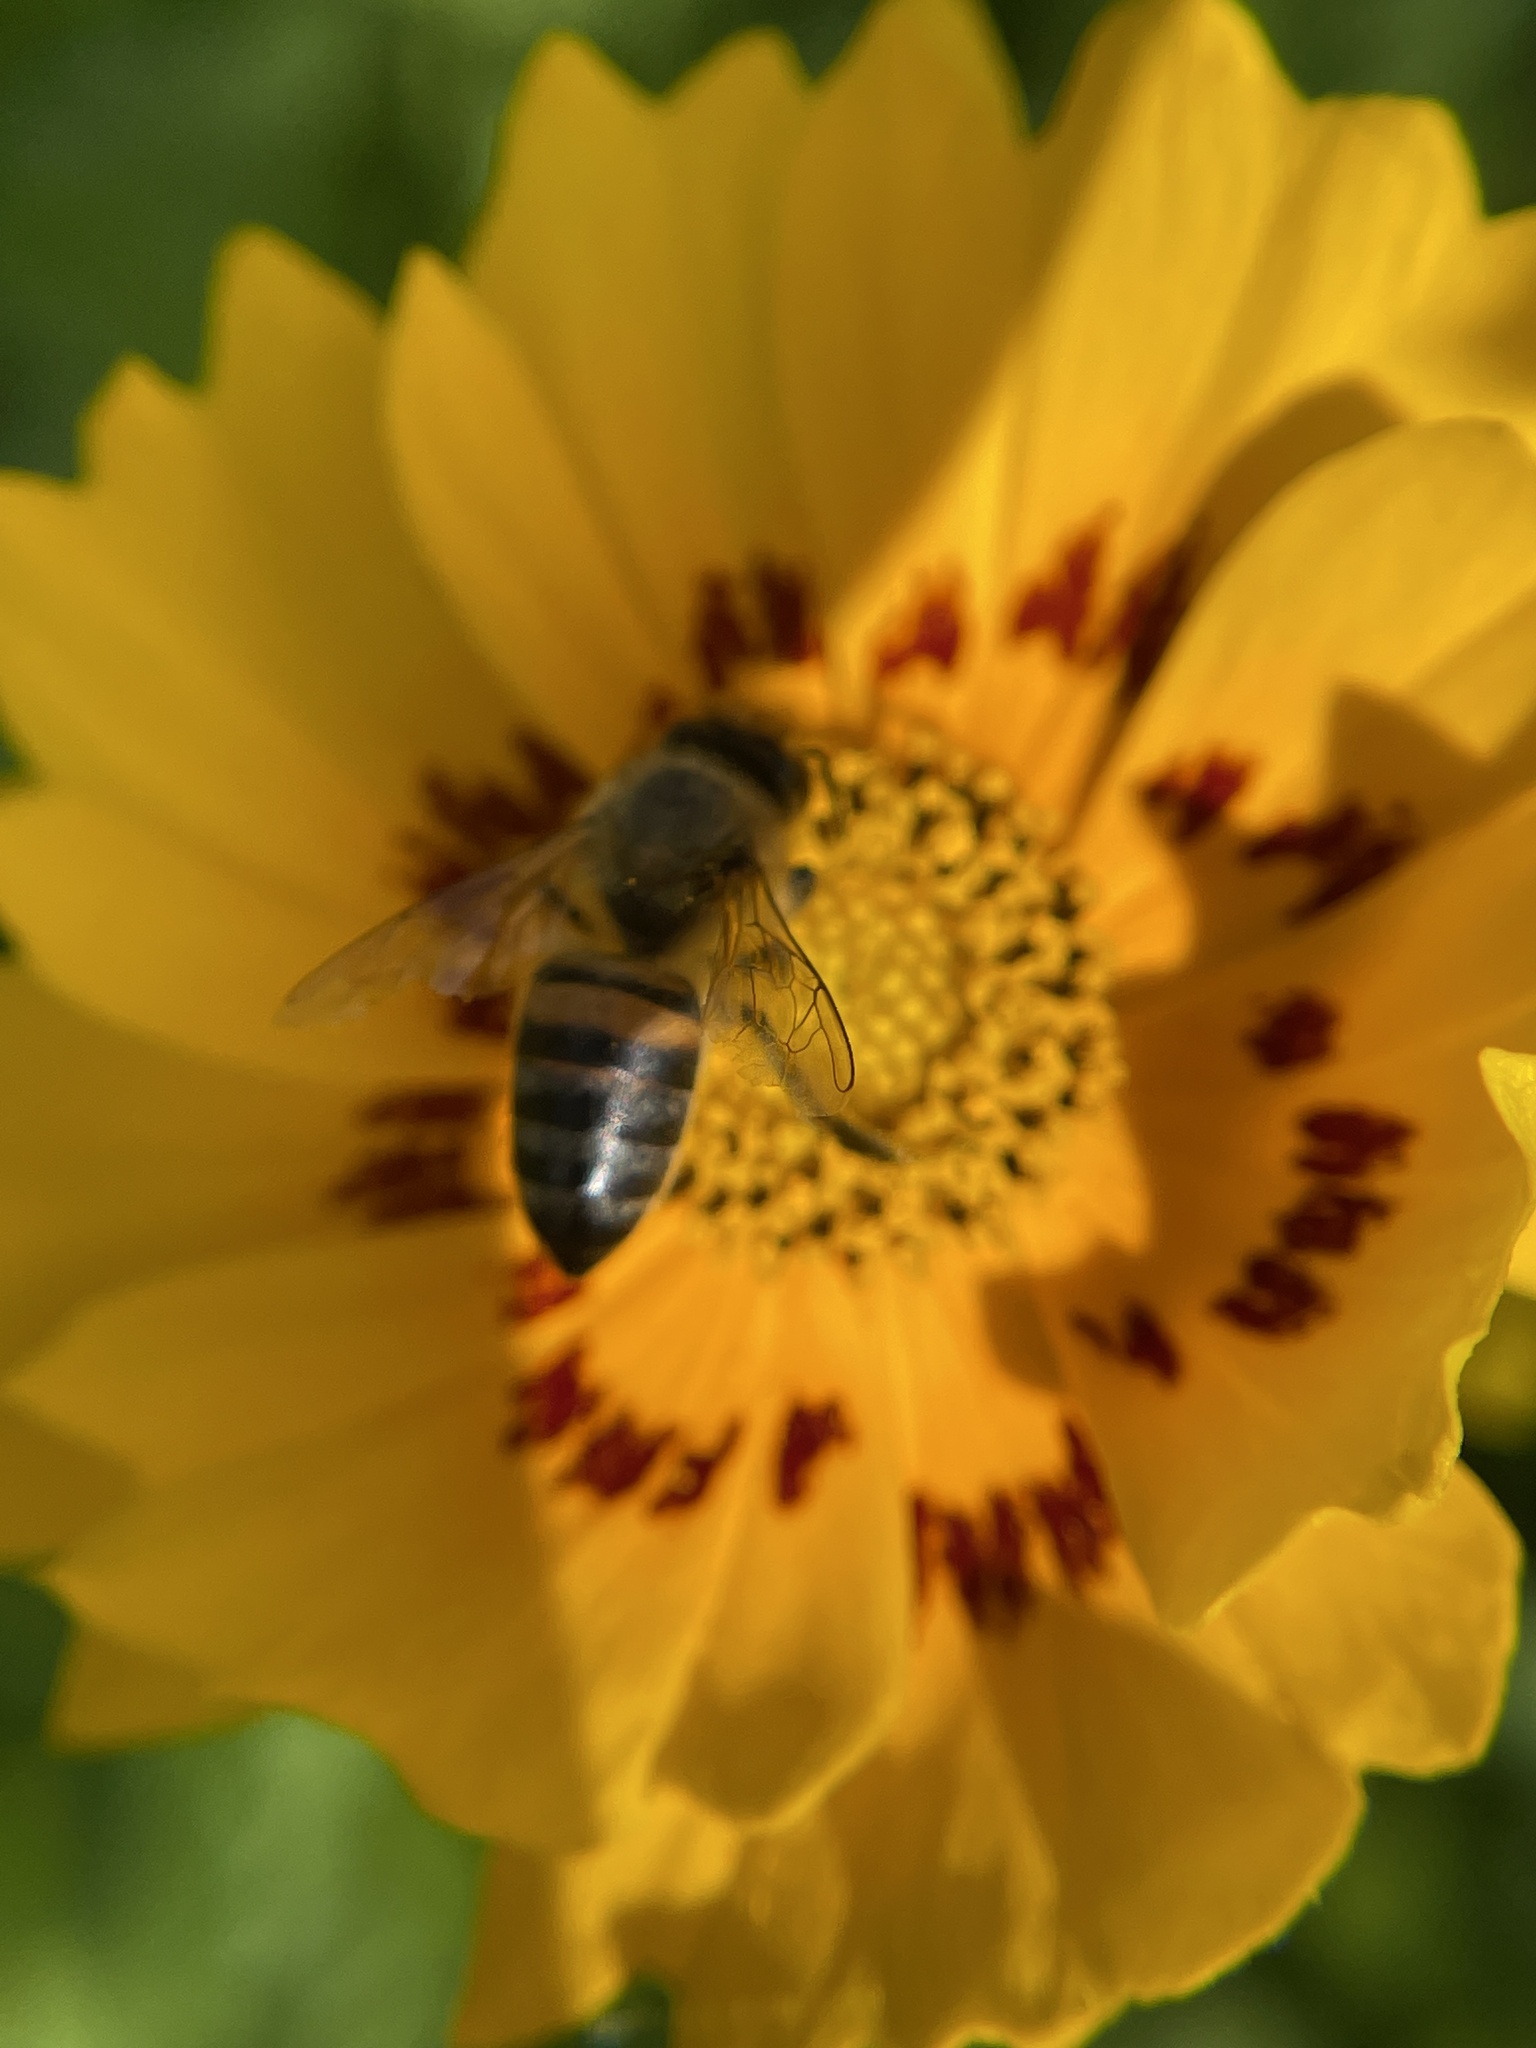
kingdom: Animalia
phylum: Arthropoda
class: Insecta
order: Hymenoptera
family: Apidae
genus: Apis
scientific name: Apis mellifera
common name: Honey bee
